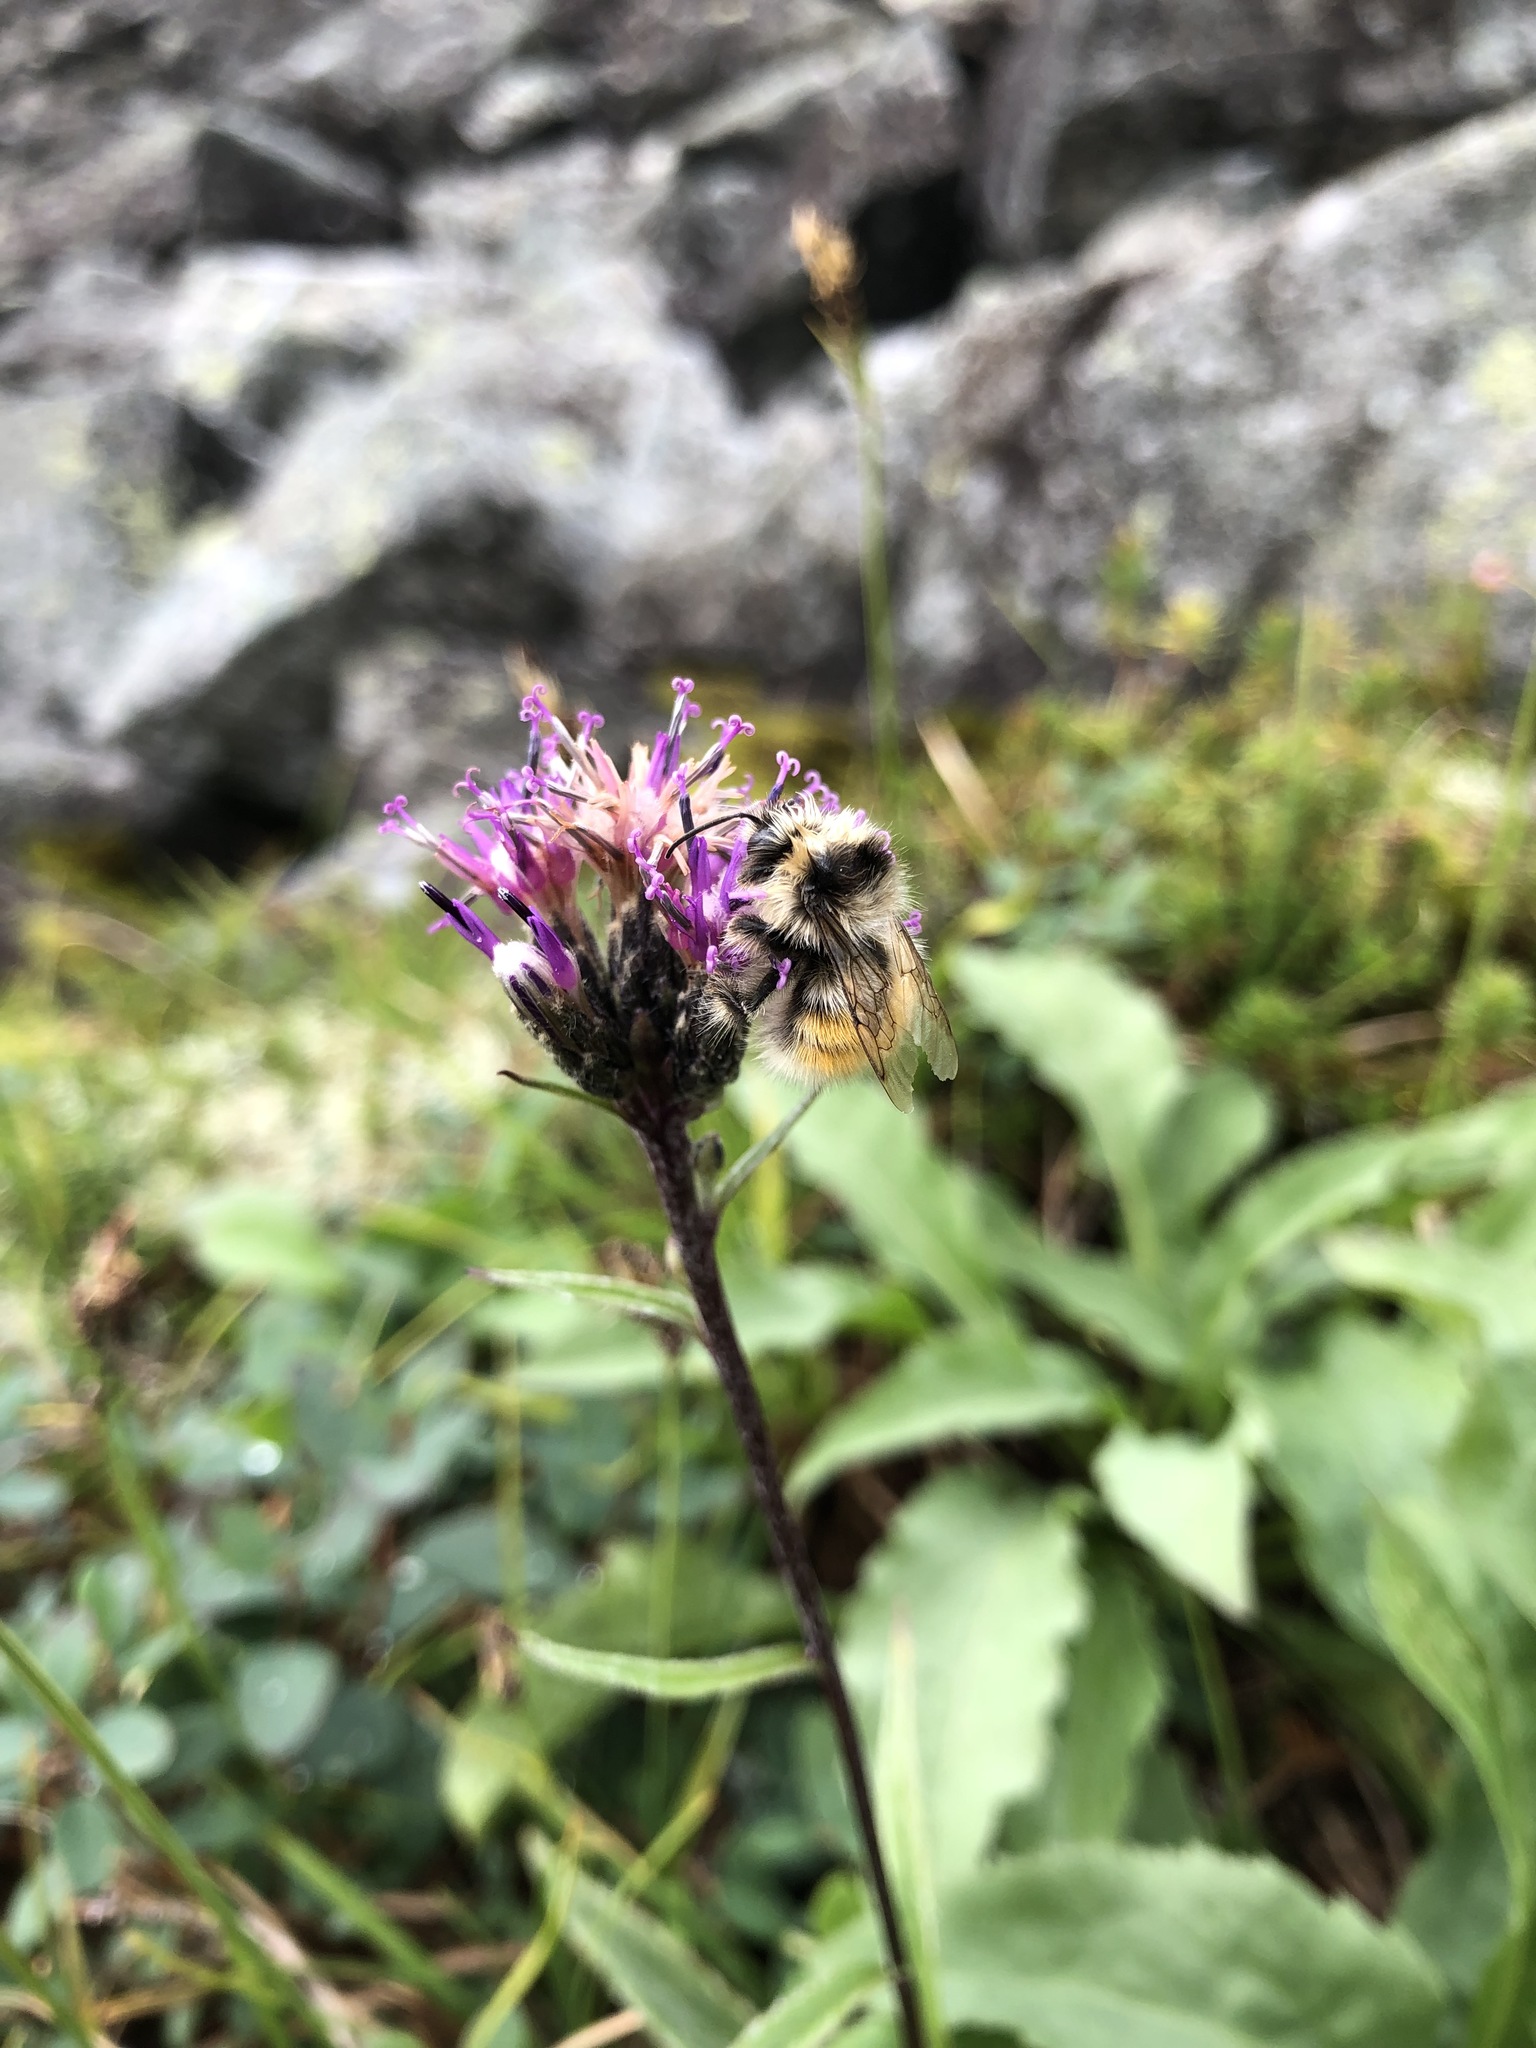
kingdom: Plantae
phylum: Tracheophyta
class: Magnoliopsida
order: Asterales
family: Asteraceae
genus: Saussurea
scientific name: Saussurea alpina
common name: Alpine saw-wort
